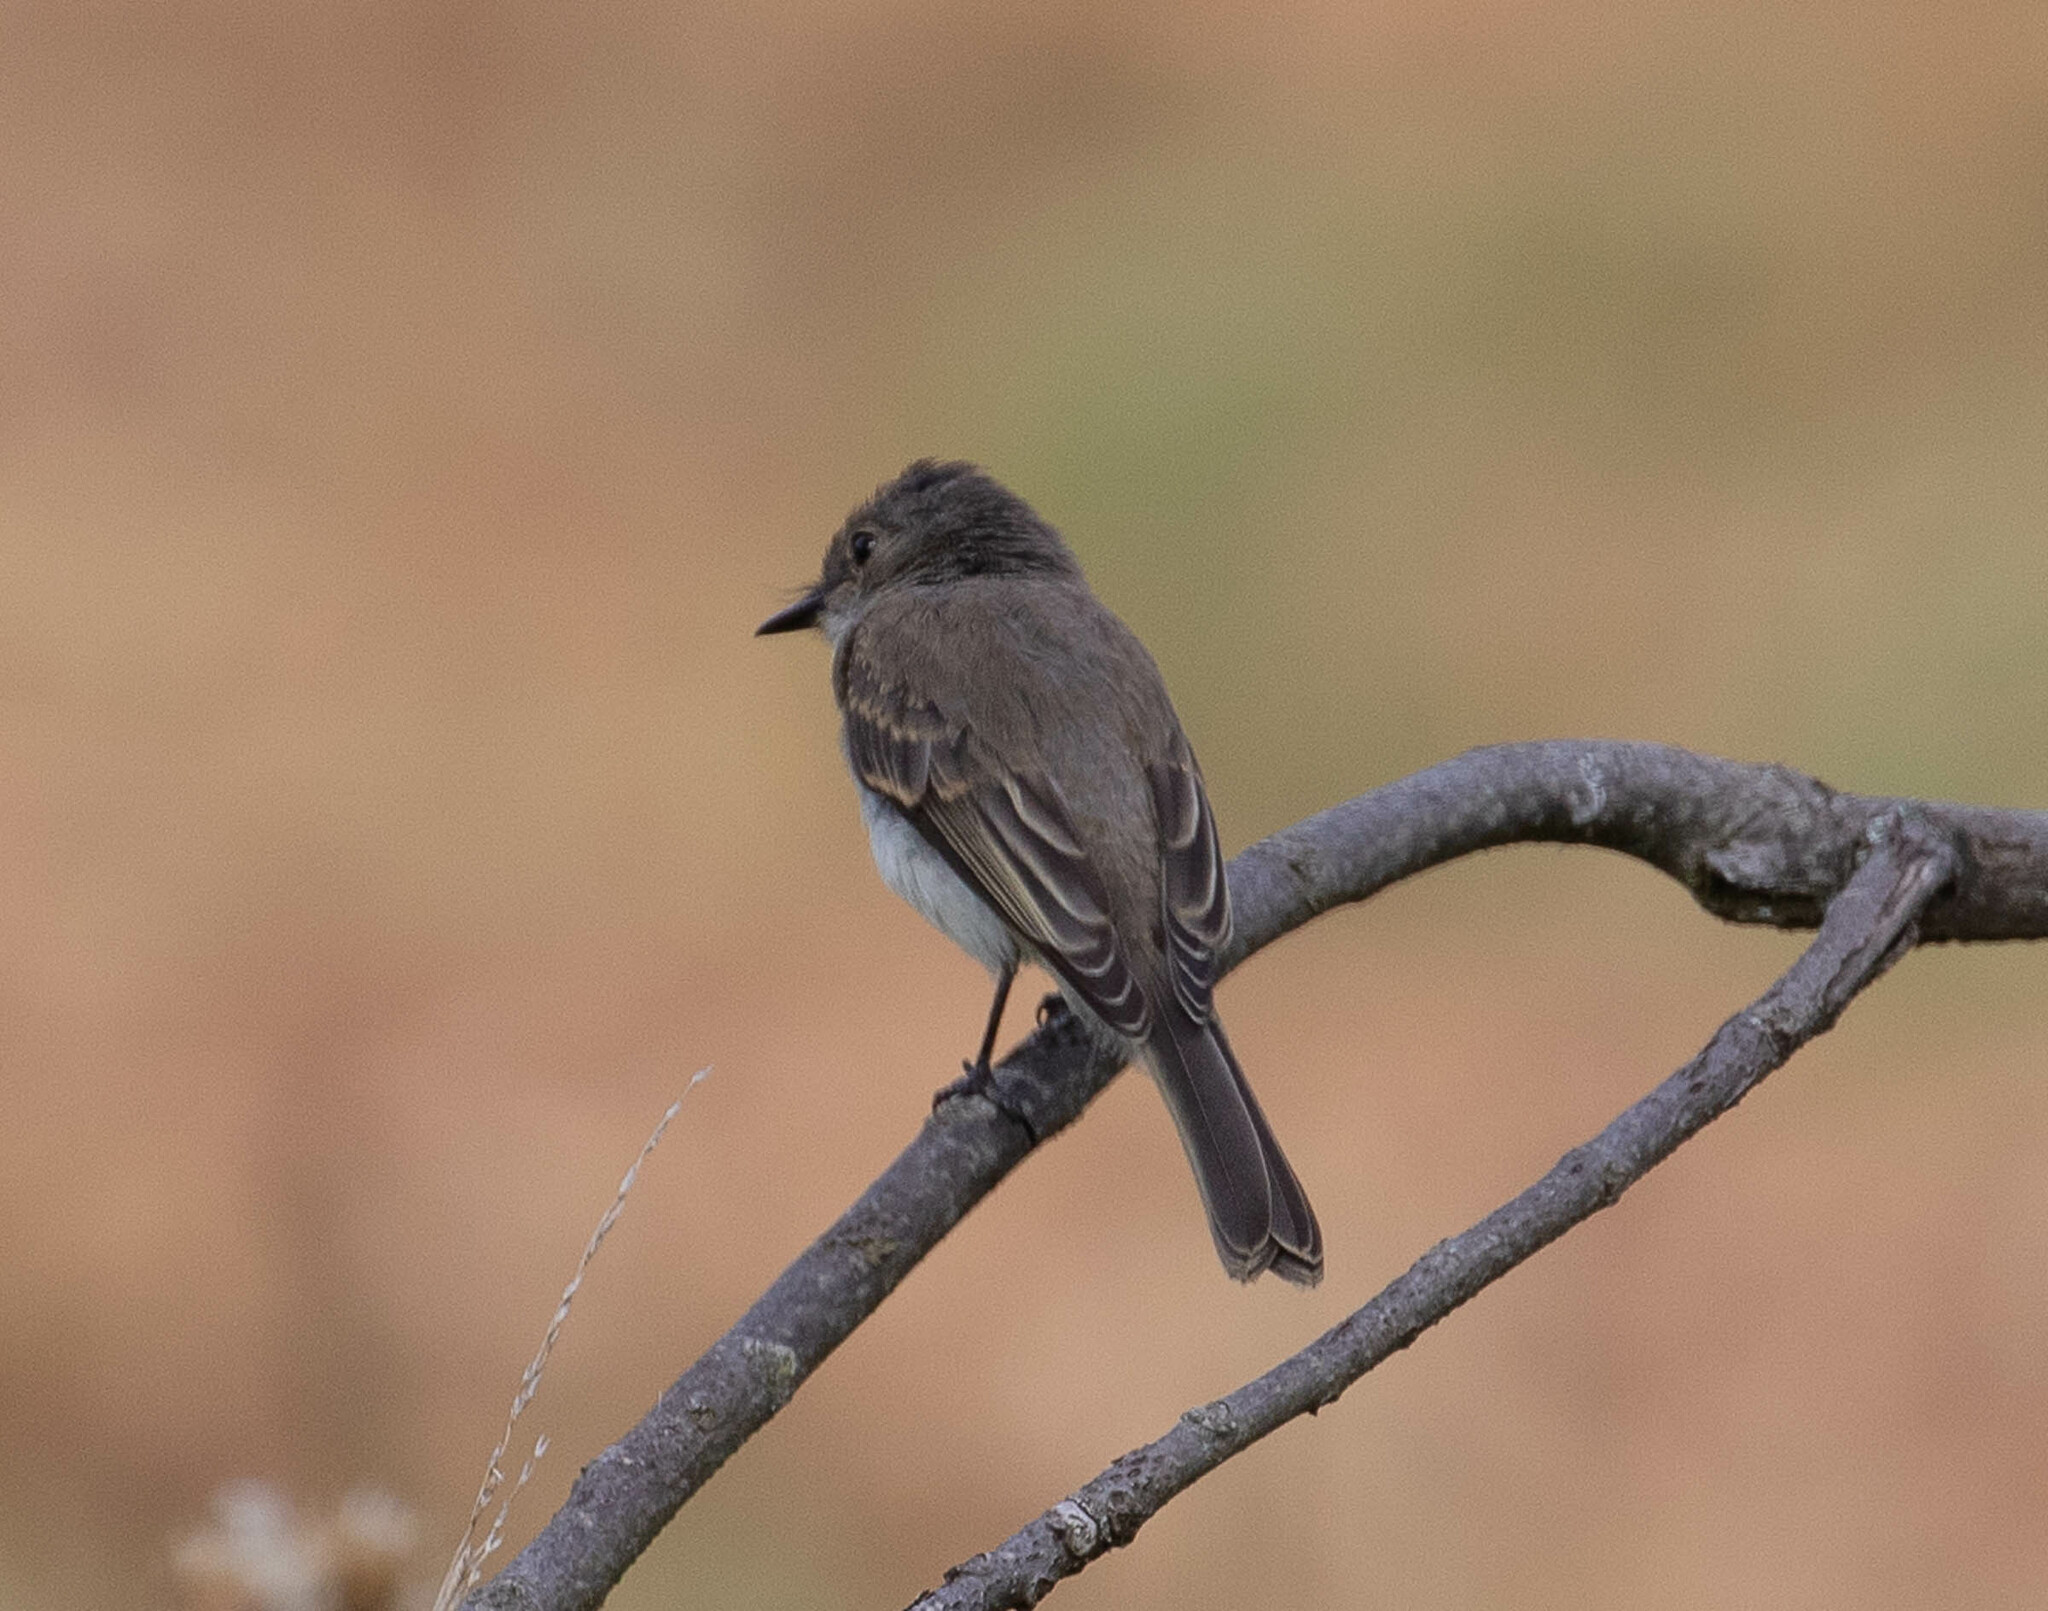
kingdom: Animalia
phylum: Chordata
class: Aves
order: Passeriformes
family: Tyrannidae
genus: Sayornis
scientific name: Sayornis phoebe
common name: Eastern phoebe
